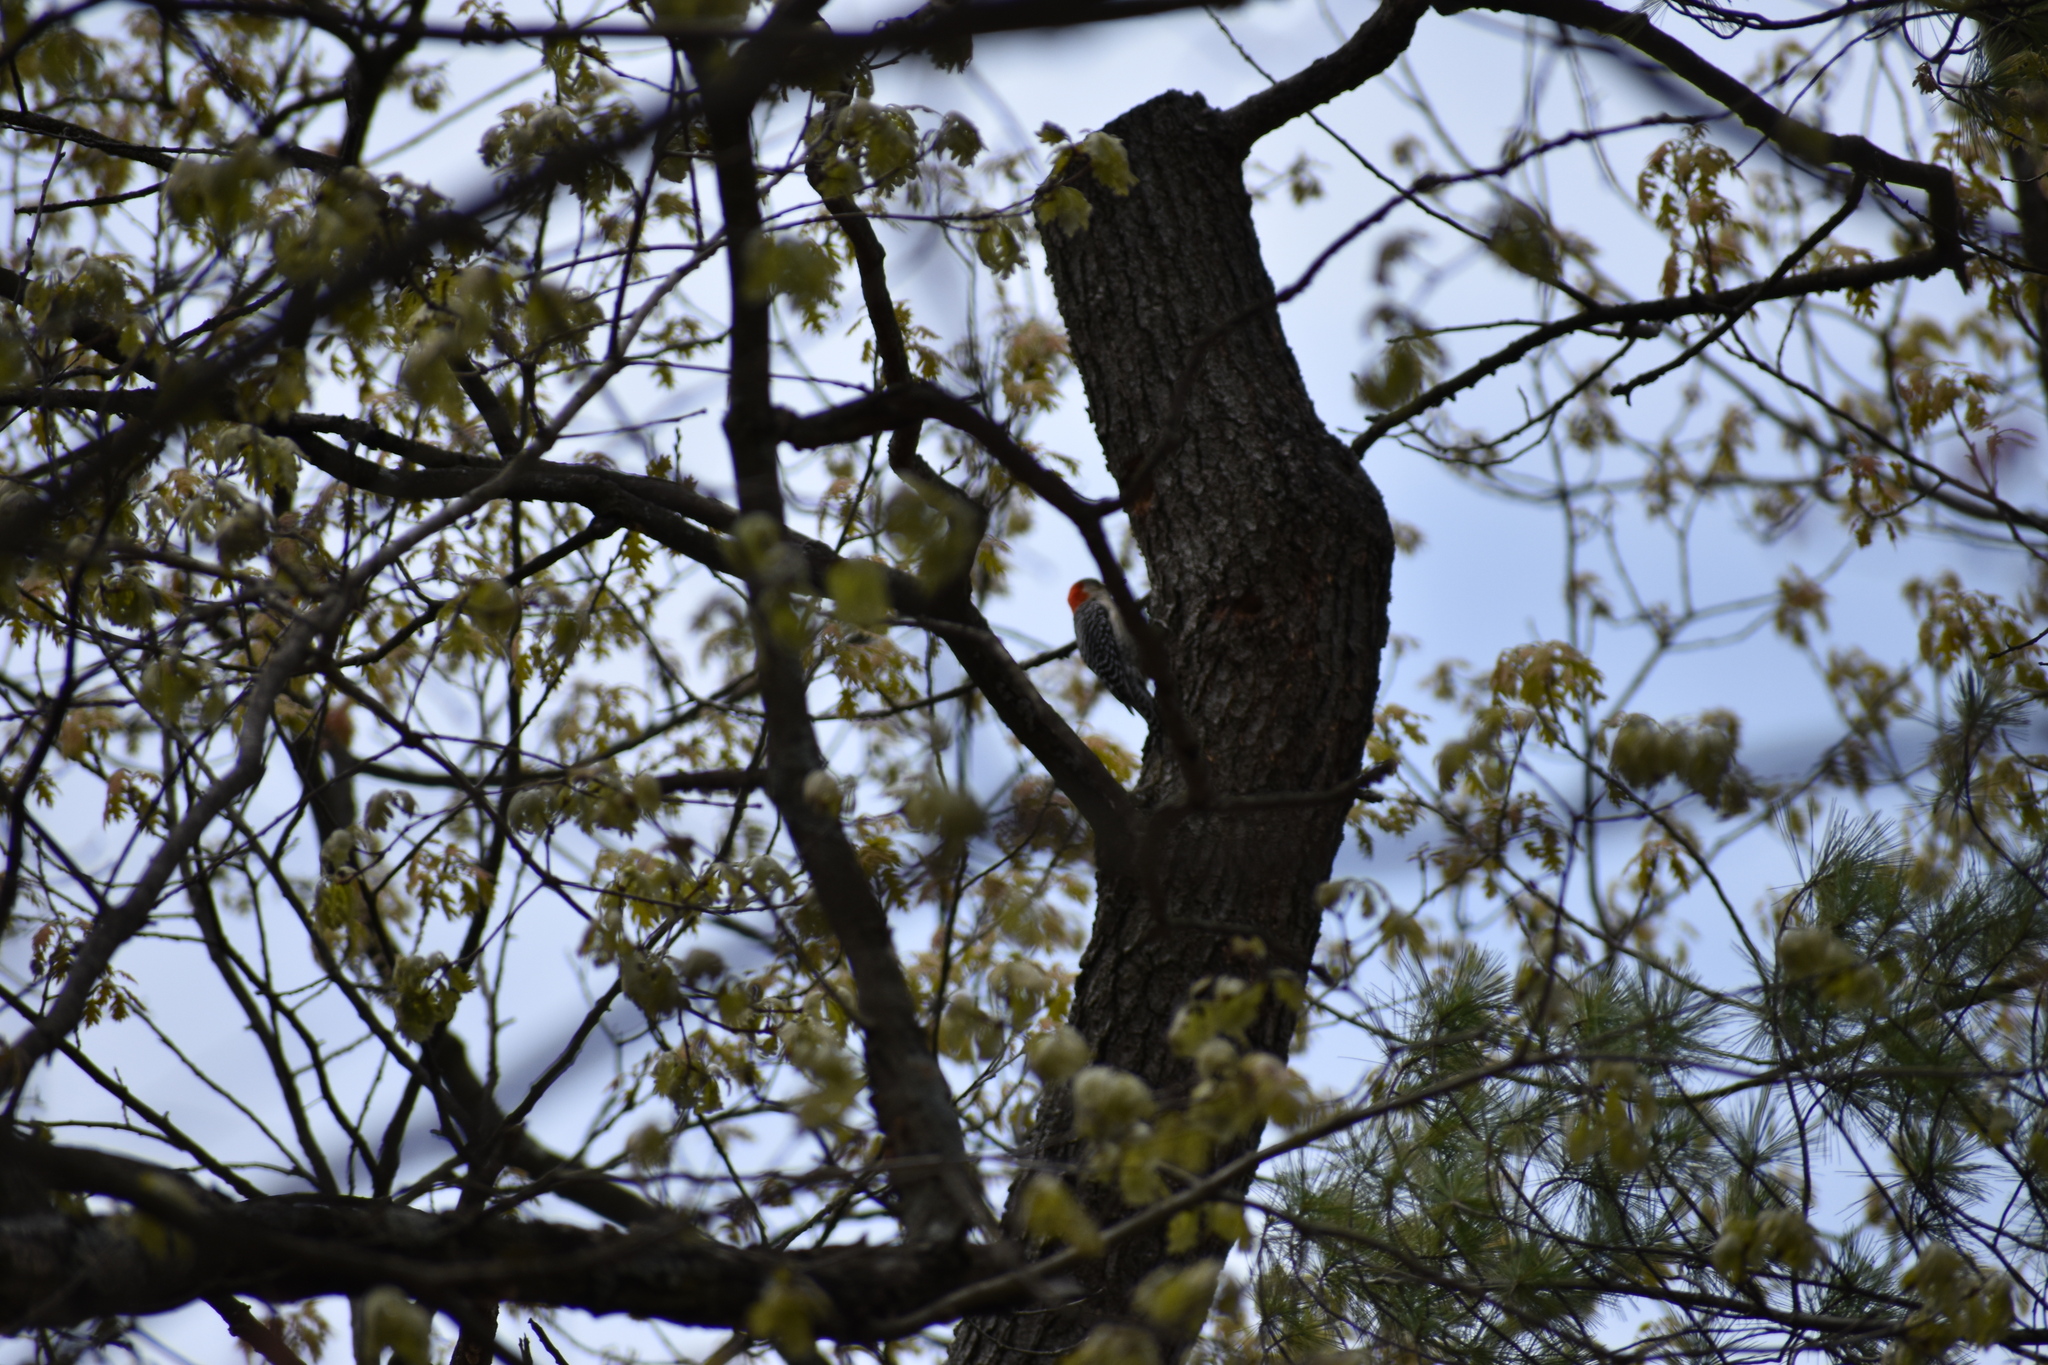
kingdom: Animalia
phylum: Chordata
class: Aves
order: Piciformes
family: Picidae
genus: Melanerpes
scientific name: Melanerpes carolinus
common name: Red-bellied woodpecker
